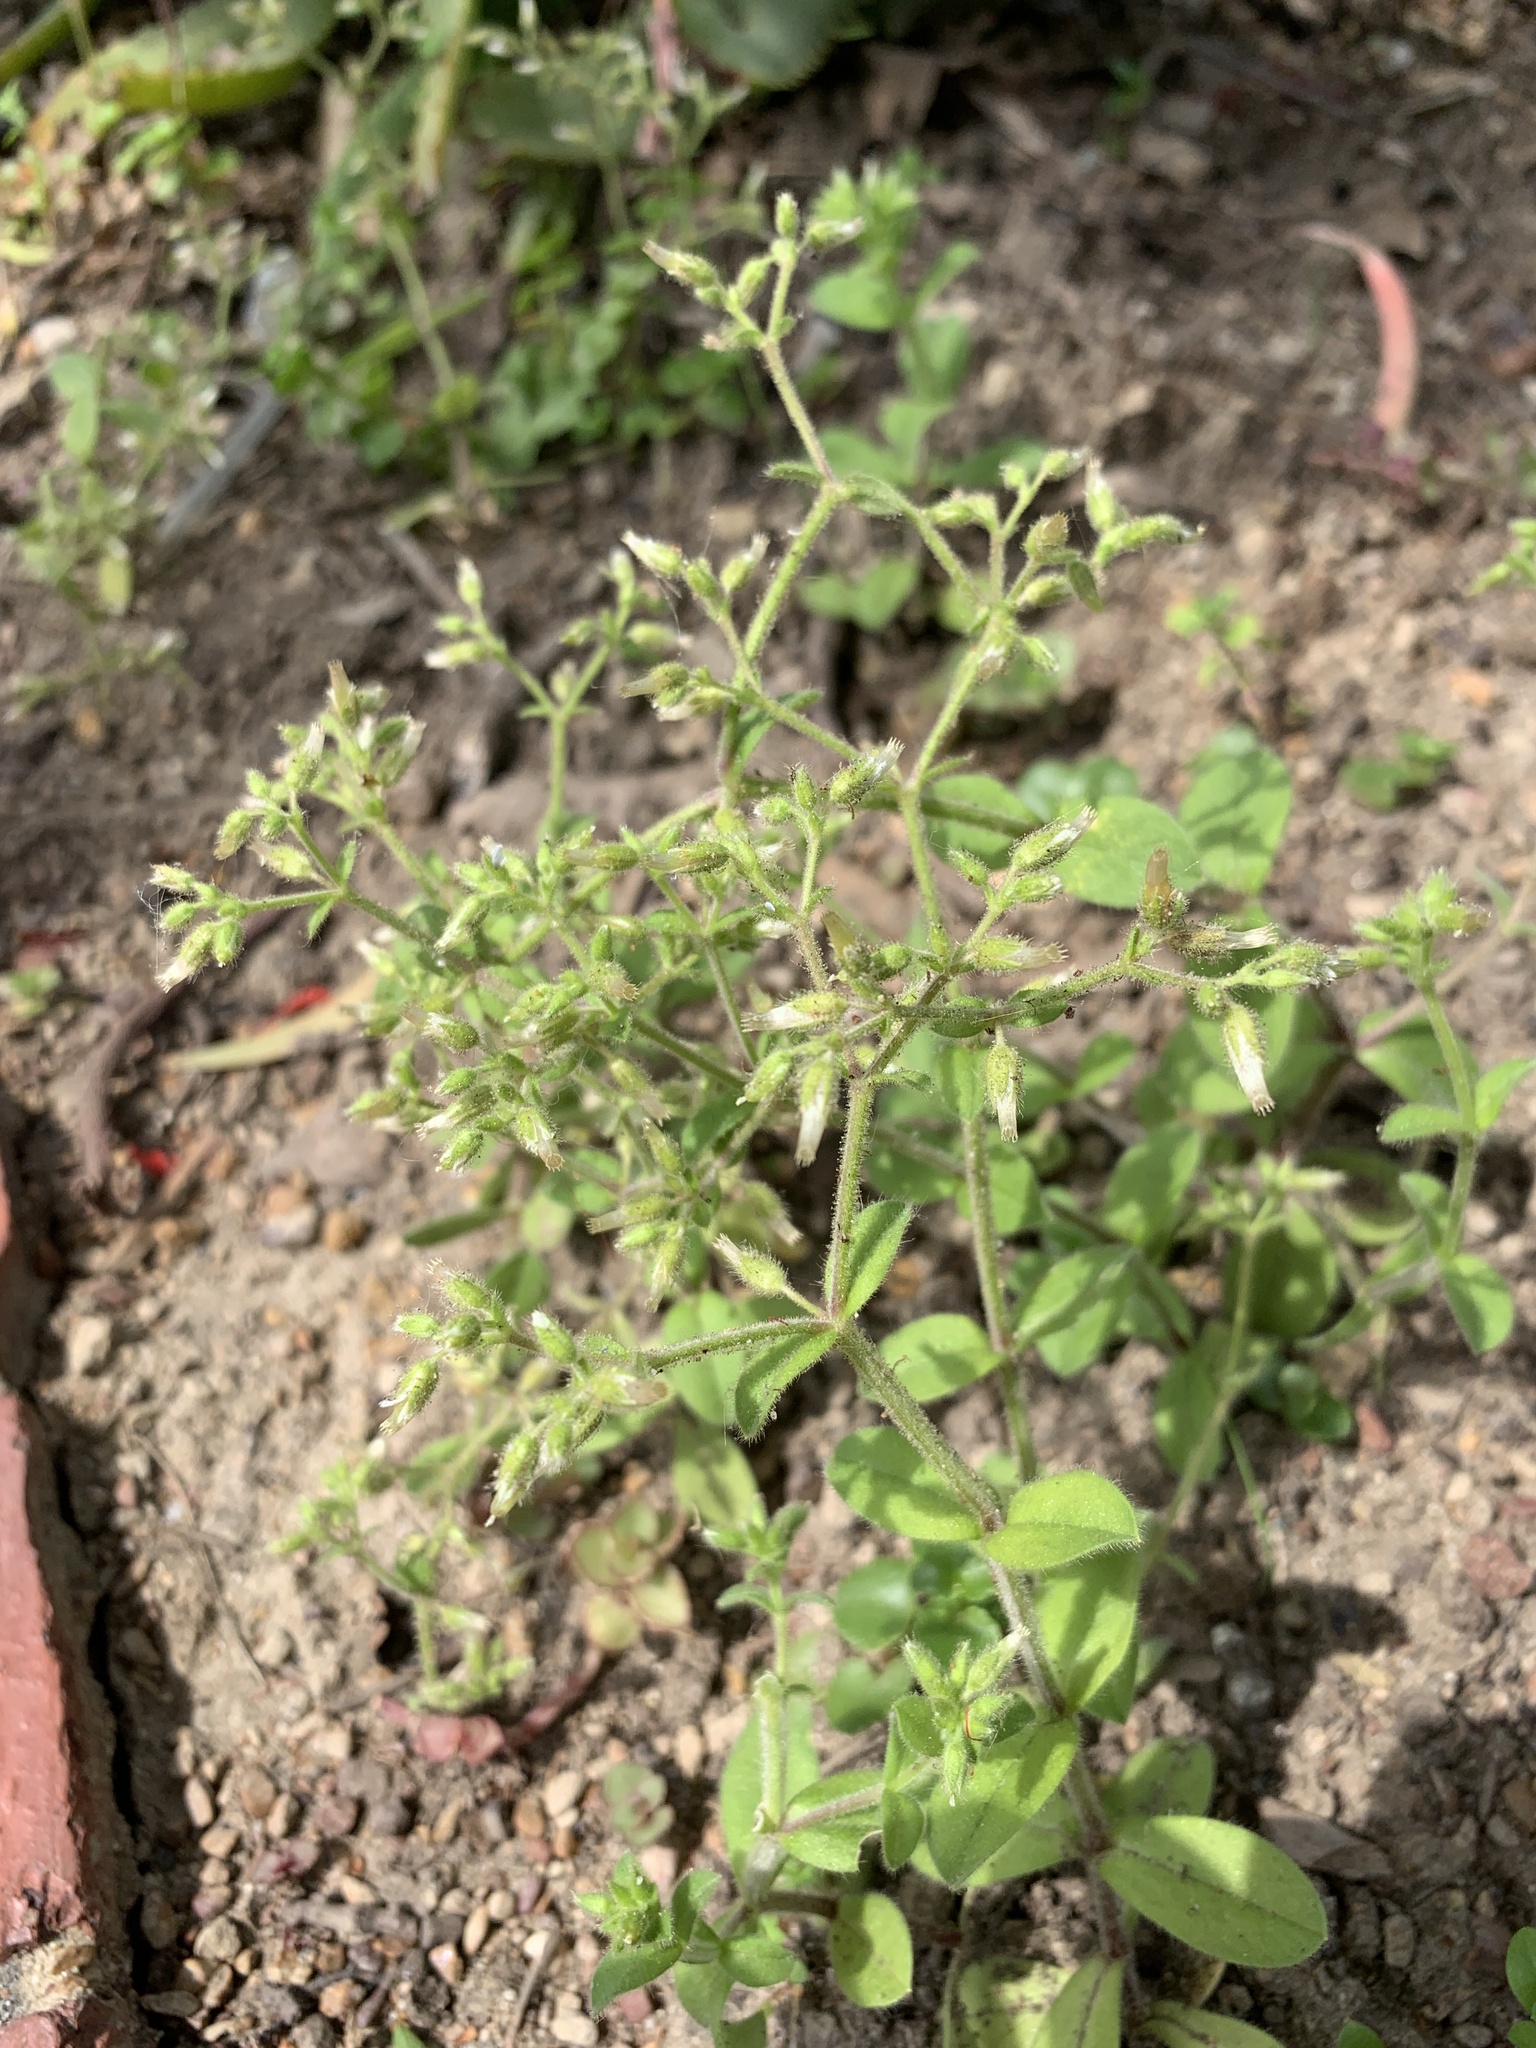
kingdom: Plantae
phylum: Tracheophyta
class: Magnoliopsida
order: Caryophyllales
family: Caryophyllaceae
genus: Cerastium
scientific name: Cerastium glomeratum
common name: Sticky chickweed
